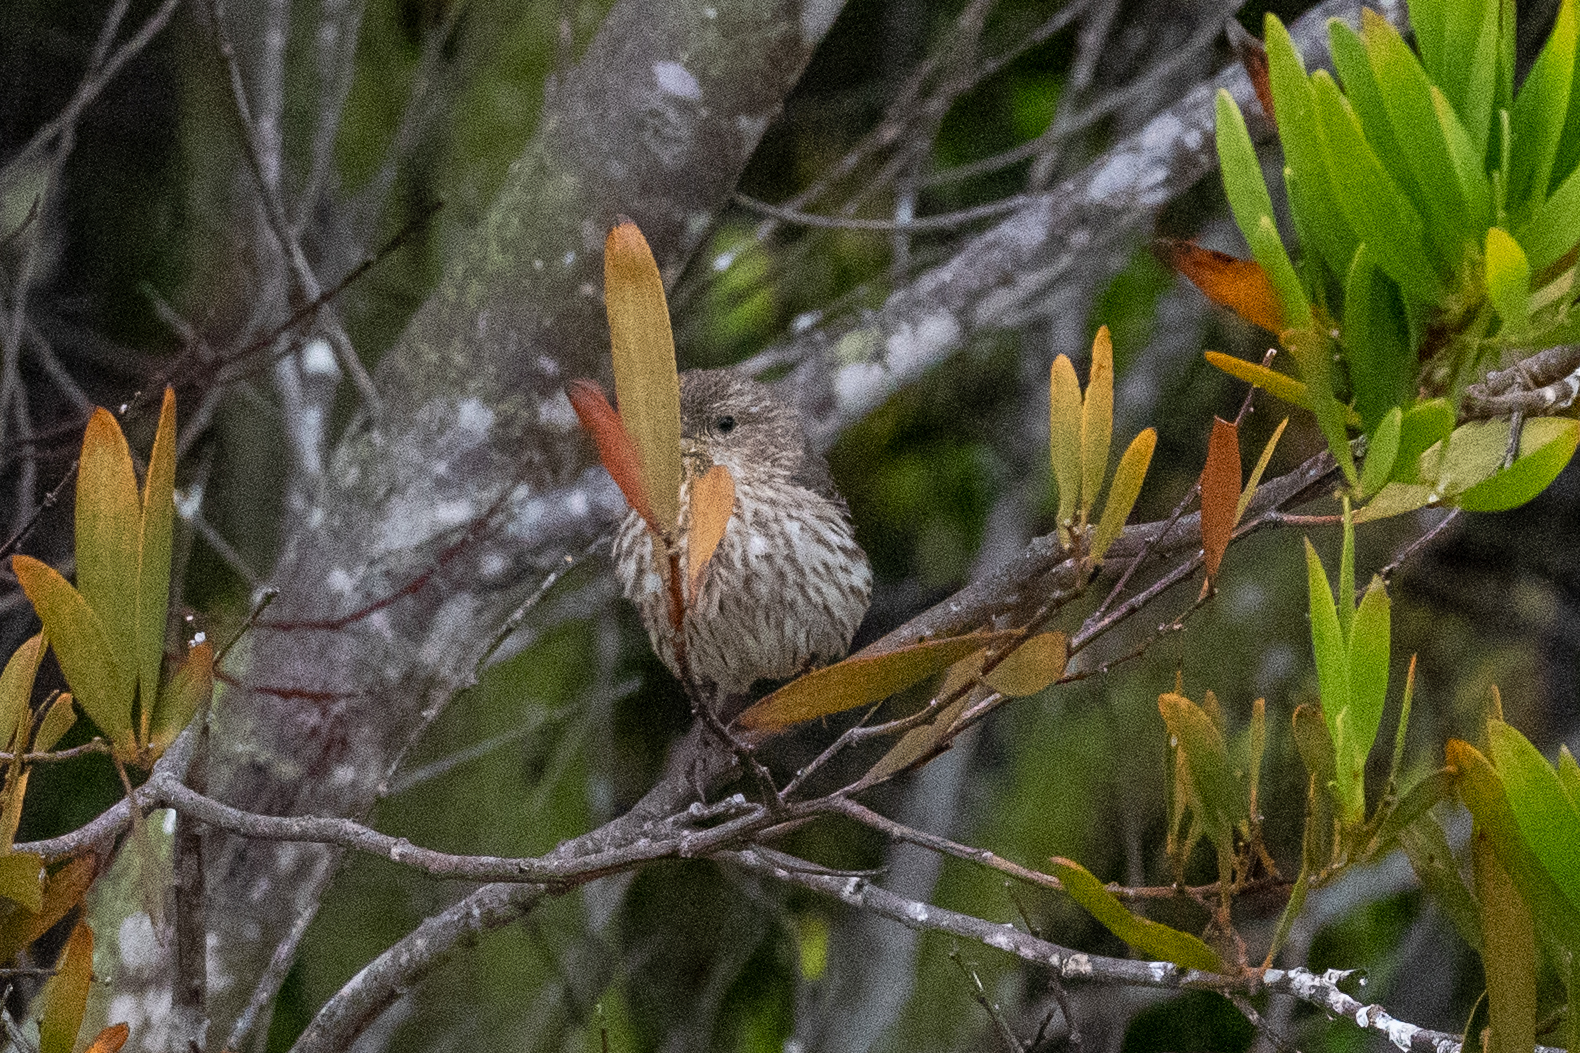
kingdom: Animalia
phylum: Chordata
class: Aves
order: Passeriformes
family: Fringillidae
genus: Haemorhous
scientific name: Haemorhous mexicanus
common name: House finch
